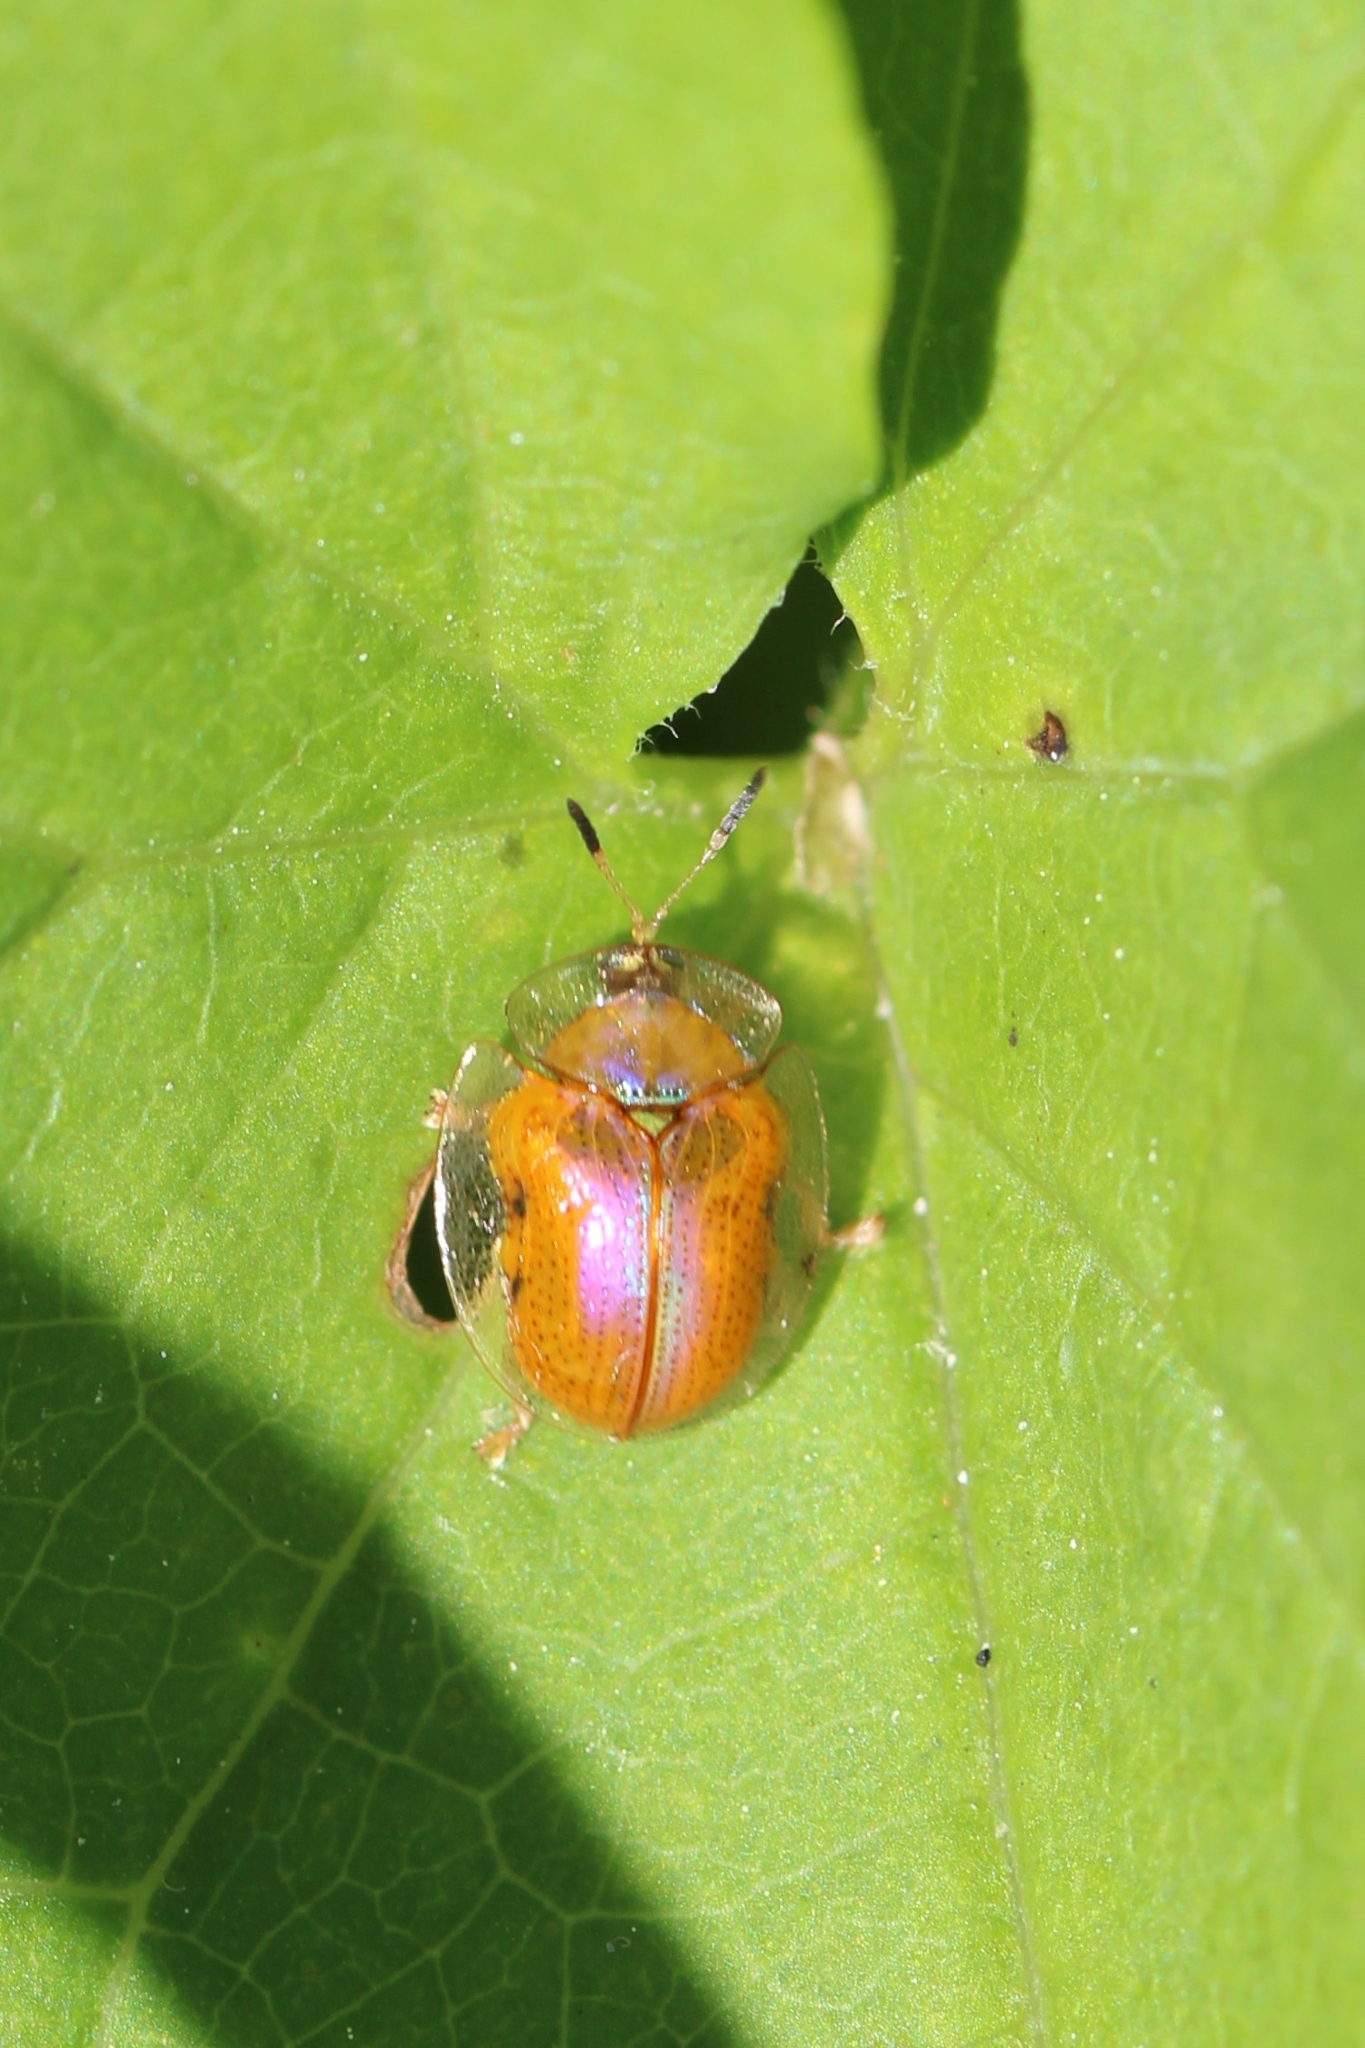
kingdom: Animalia
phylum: Arthropoda
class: Insecta
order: Coleoptera
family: Chrysomelidae
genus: Charidotella
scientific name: Charidotella sexpunctata
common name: Golden tortoise beetle
